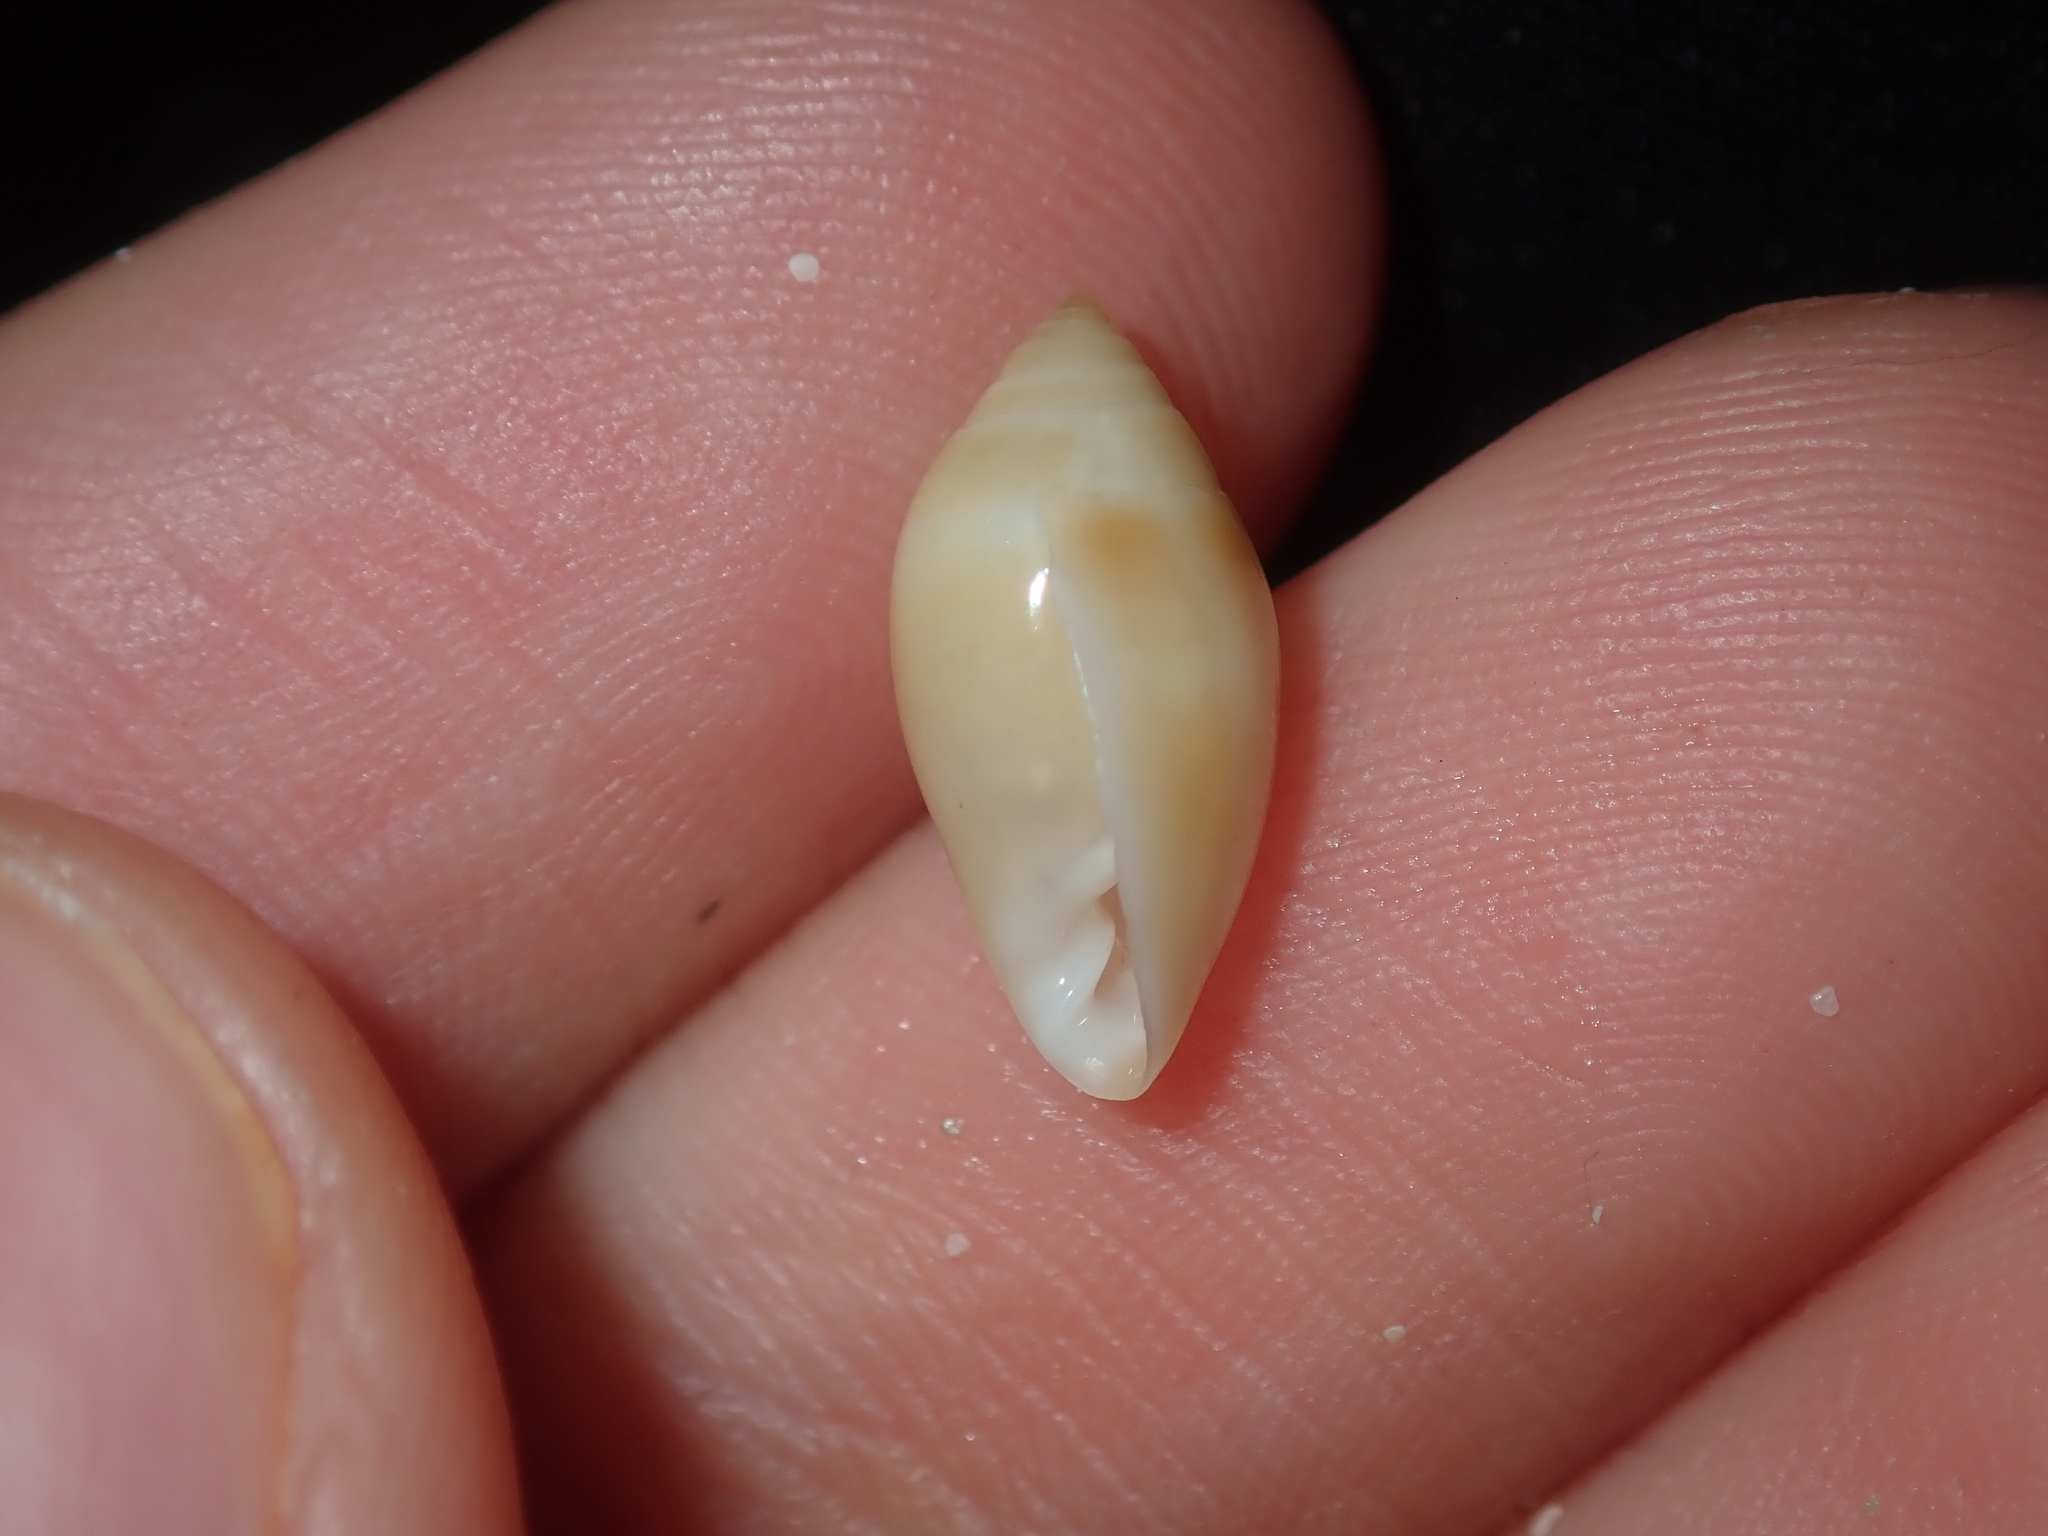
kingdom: Animalia
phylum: Mollusca
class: Gastropoda
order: Ellobiida
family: Ellobiidae
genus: Melampus
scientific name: Melampus flexuosus
